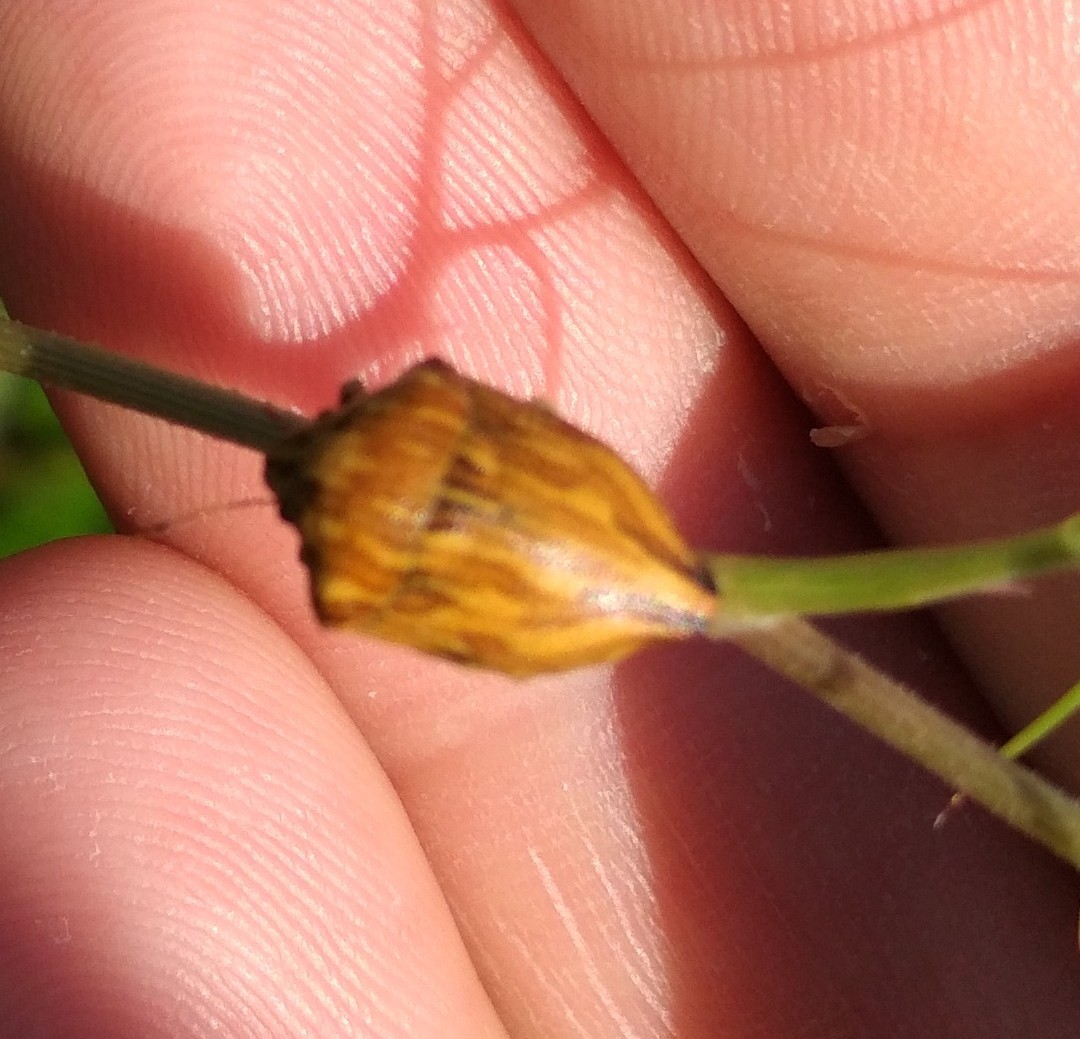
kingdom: Animalia
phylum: Arthropoda
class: Insecta
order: Hemiptera
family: Scutelleridae
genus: Odontotarsus
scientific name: Odontotarsus robustus
